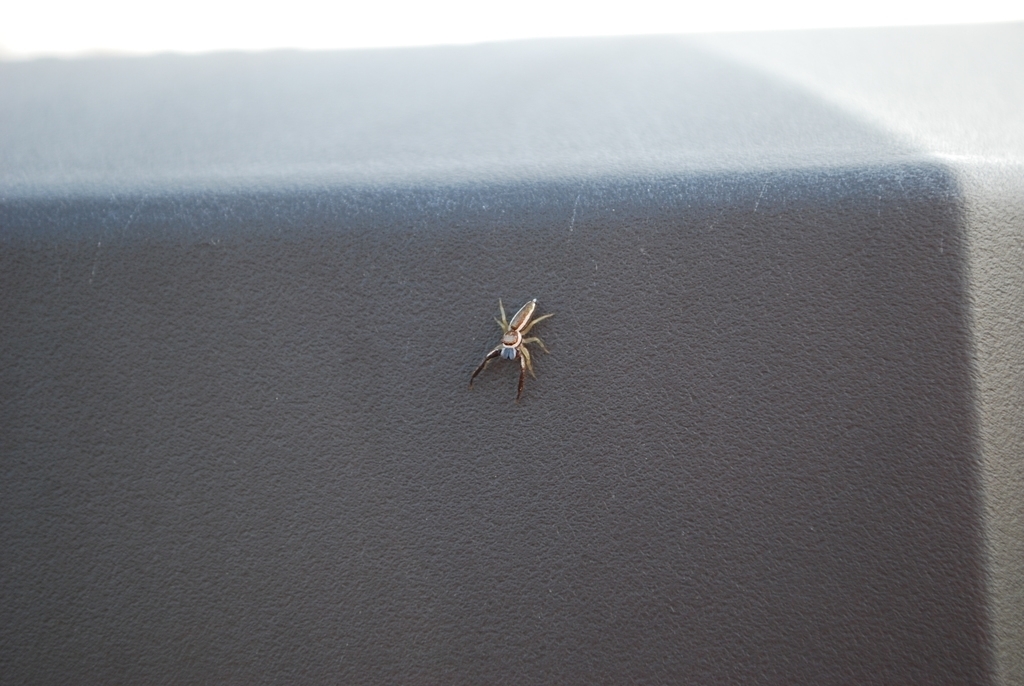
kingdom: Animalia
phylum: Arthropoda
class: Arachnida
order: Araneae
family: Salticidae
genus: Hentzia
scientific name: Hentzia palmarum
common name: Common hentz jumping spider
